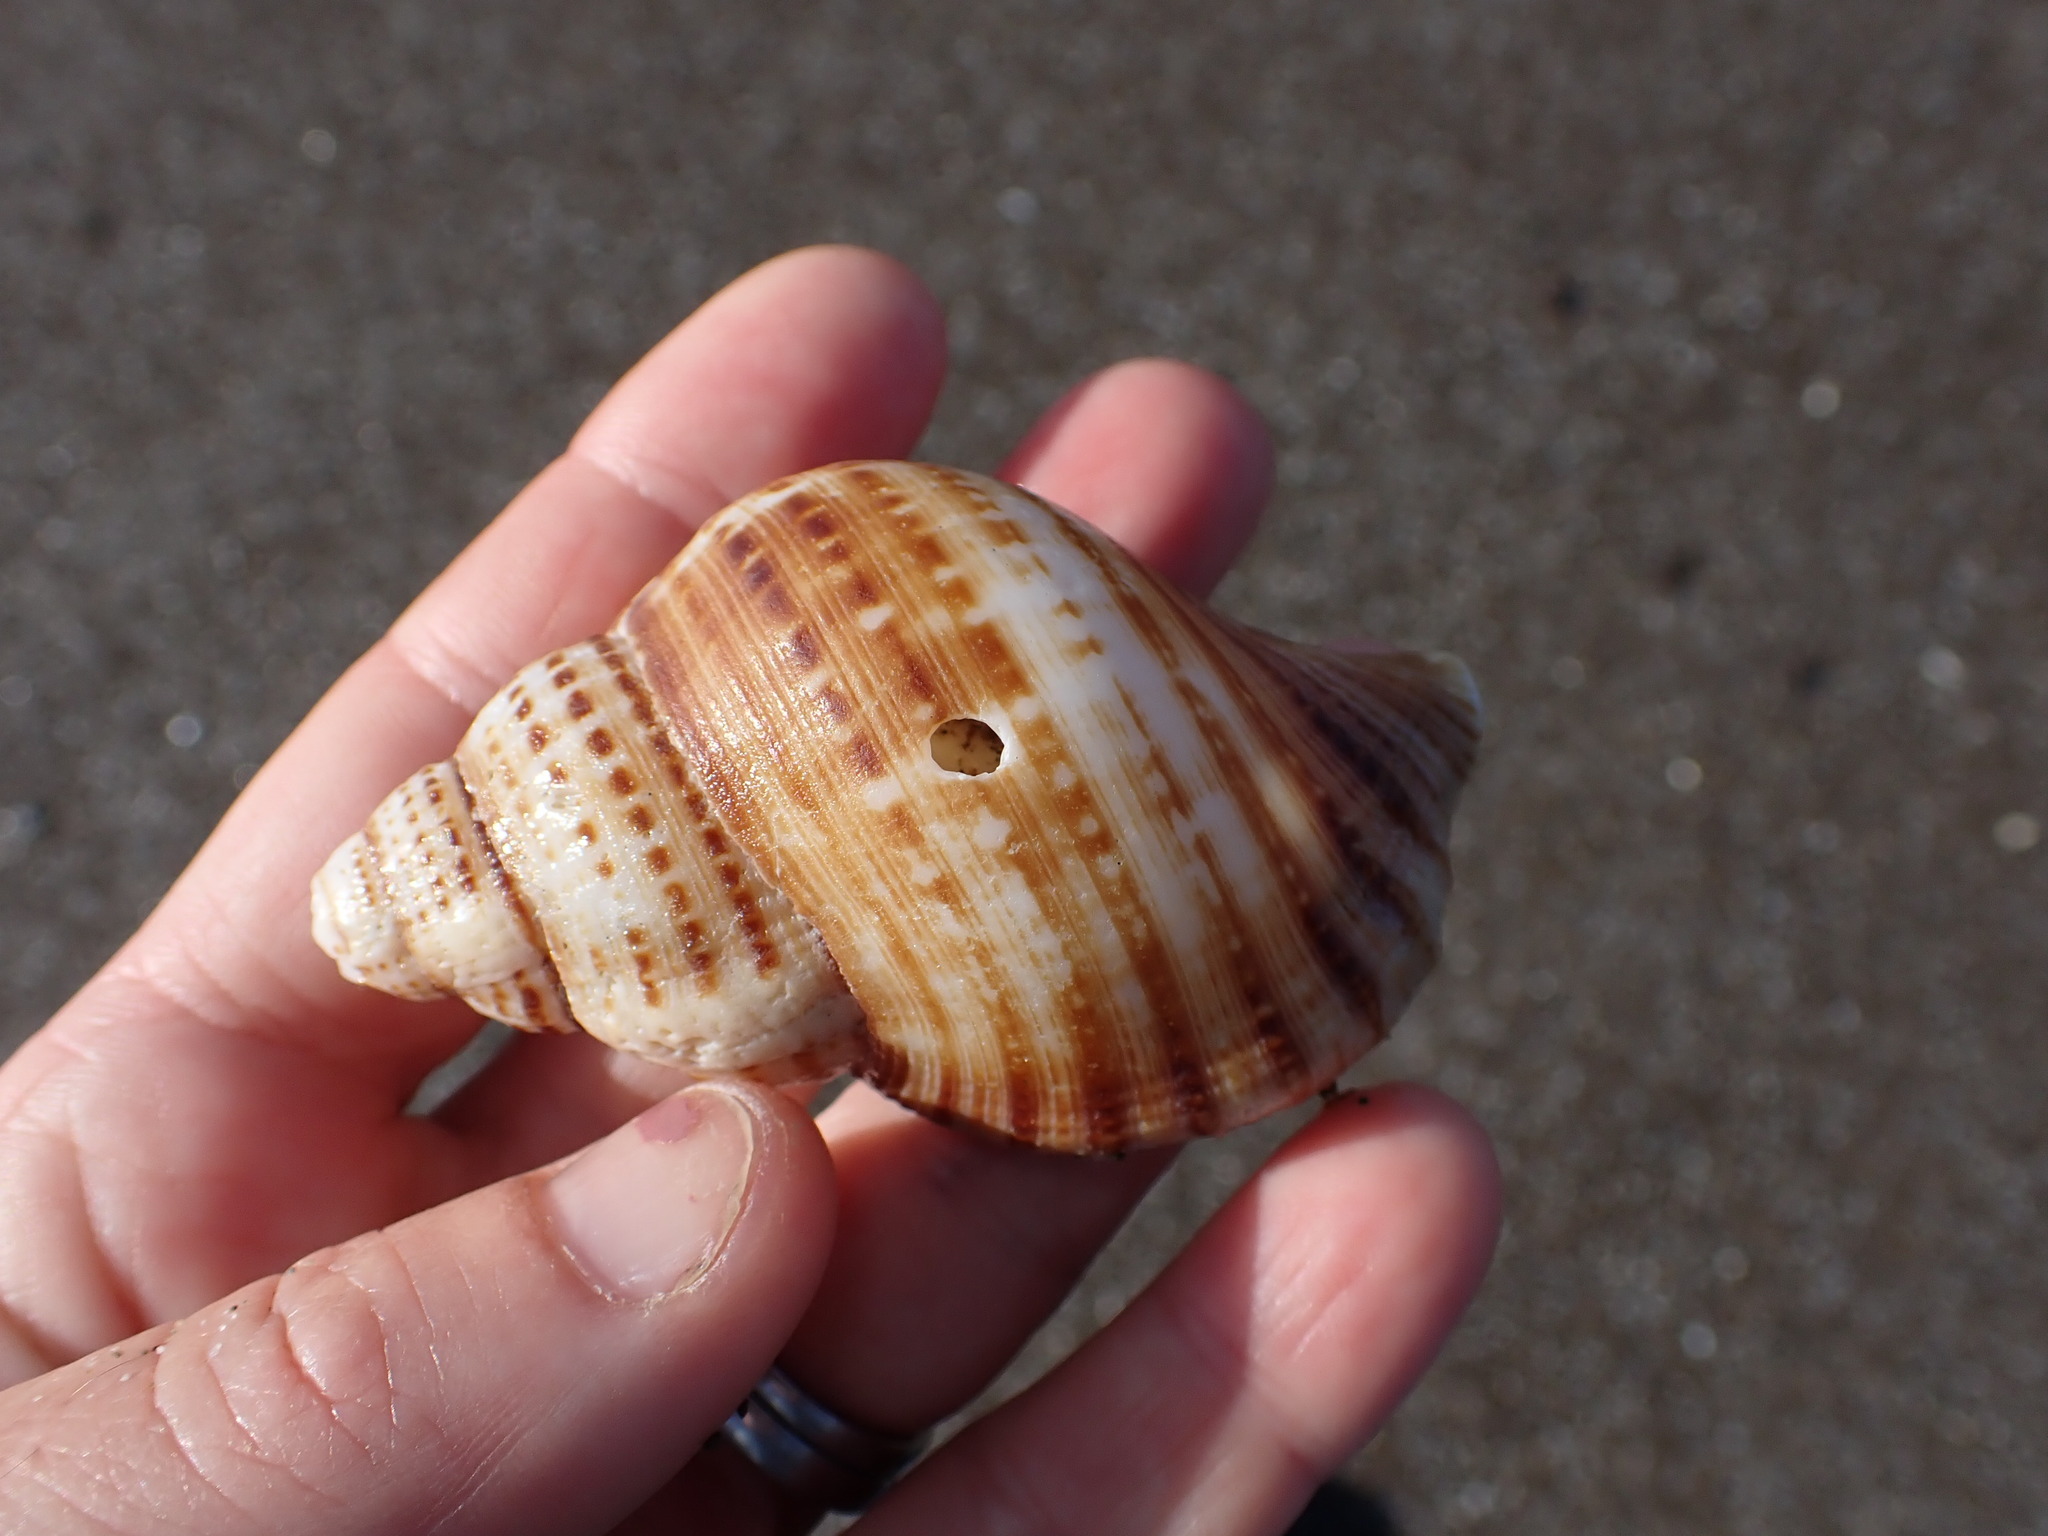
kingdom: Animalia
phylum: Mollusca
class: Gastropoda
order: Littorinimorpha
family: Cymatiidae
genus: Argobuccinum
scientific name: Argobuccinum pustulosum
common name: Pustular triton
